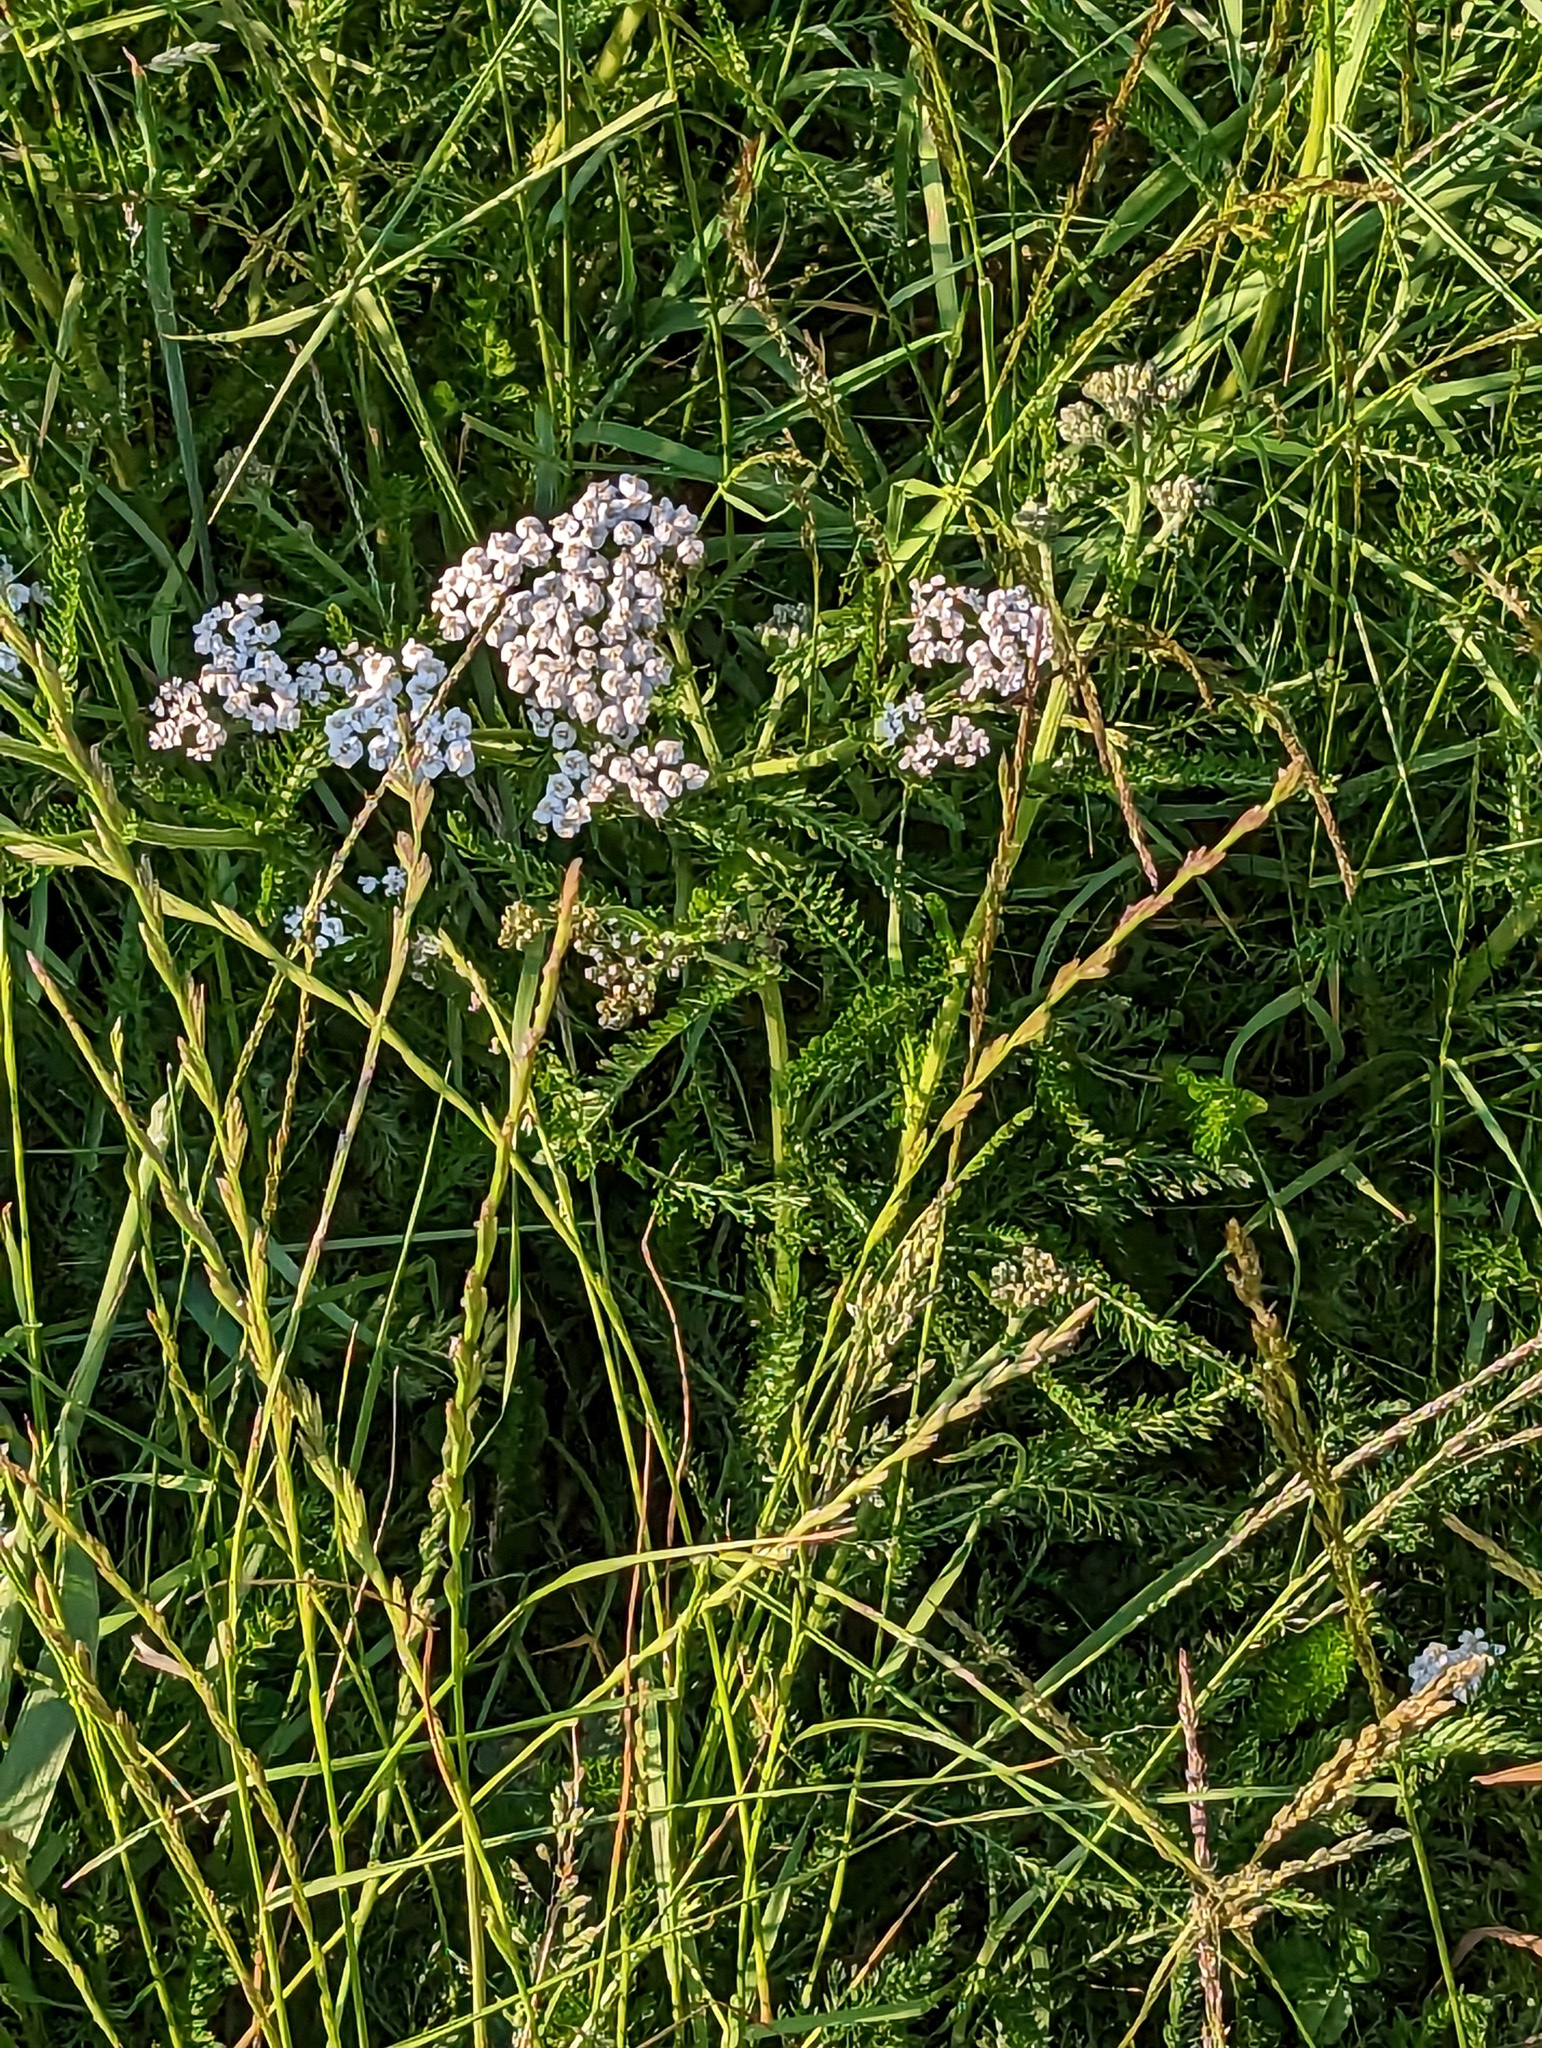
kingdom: Plantae
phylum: Tracheophyta
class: Magnoliopsida
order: Asterales
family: Asteraceae
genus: Achillea
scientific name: Achillea millefolium
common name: Yarrow
